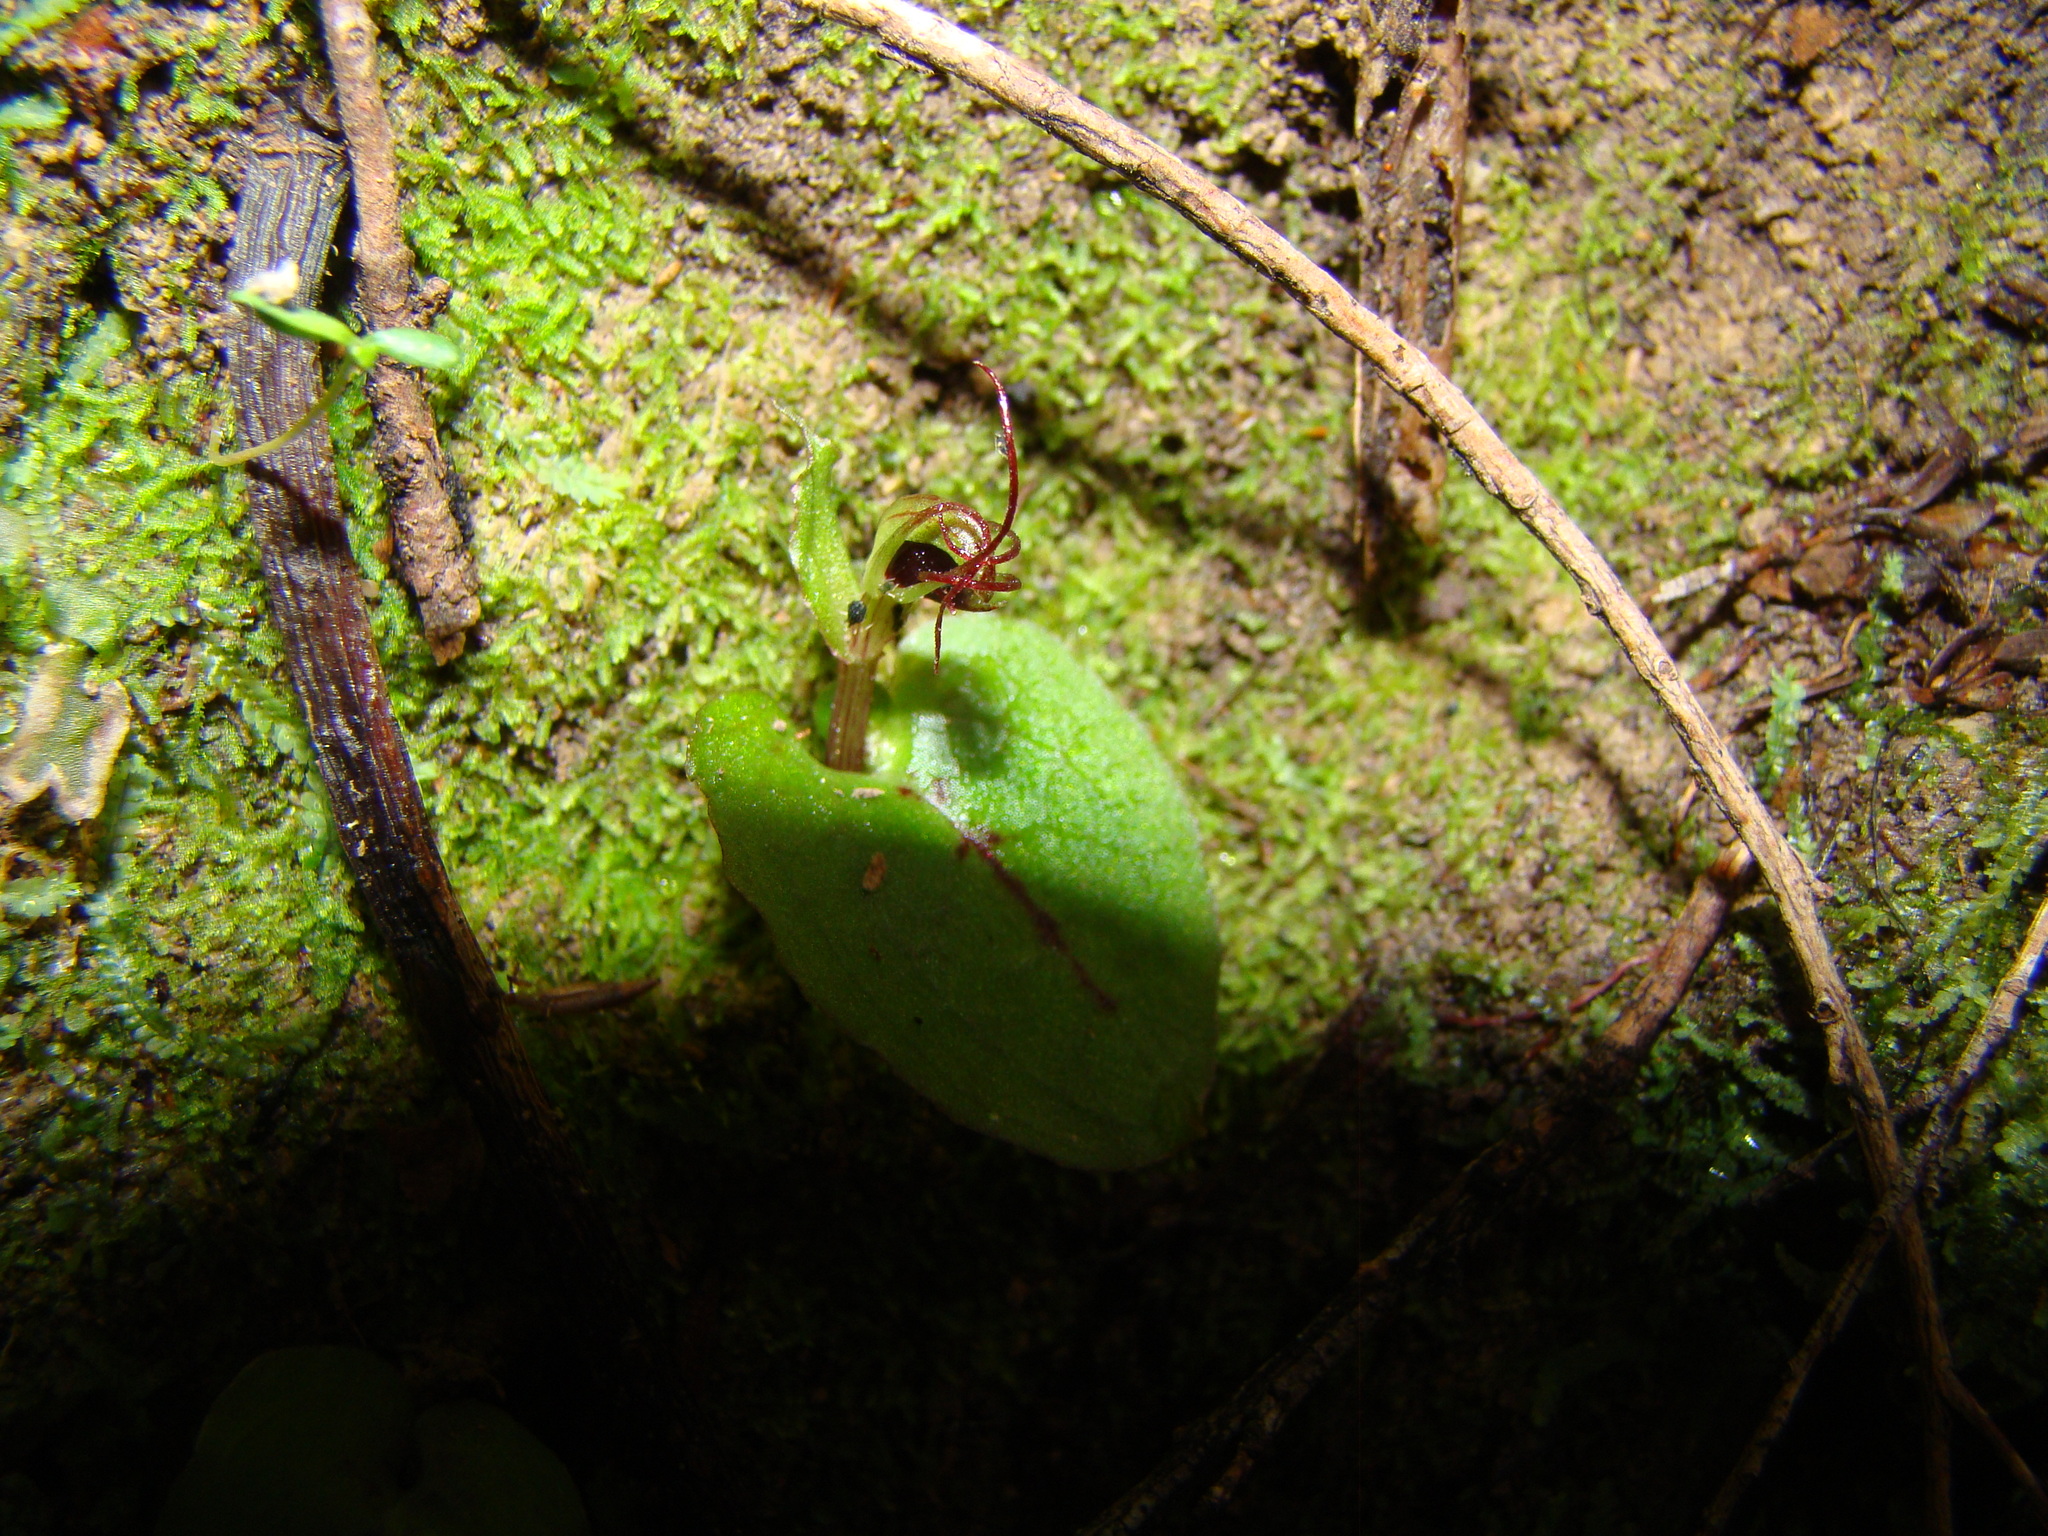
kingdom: Plantae
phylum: Tracheophyta
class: Liliopsida
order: Asparagales
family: Orchidaceae
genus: Corybas
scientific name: Corybas oblongus
